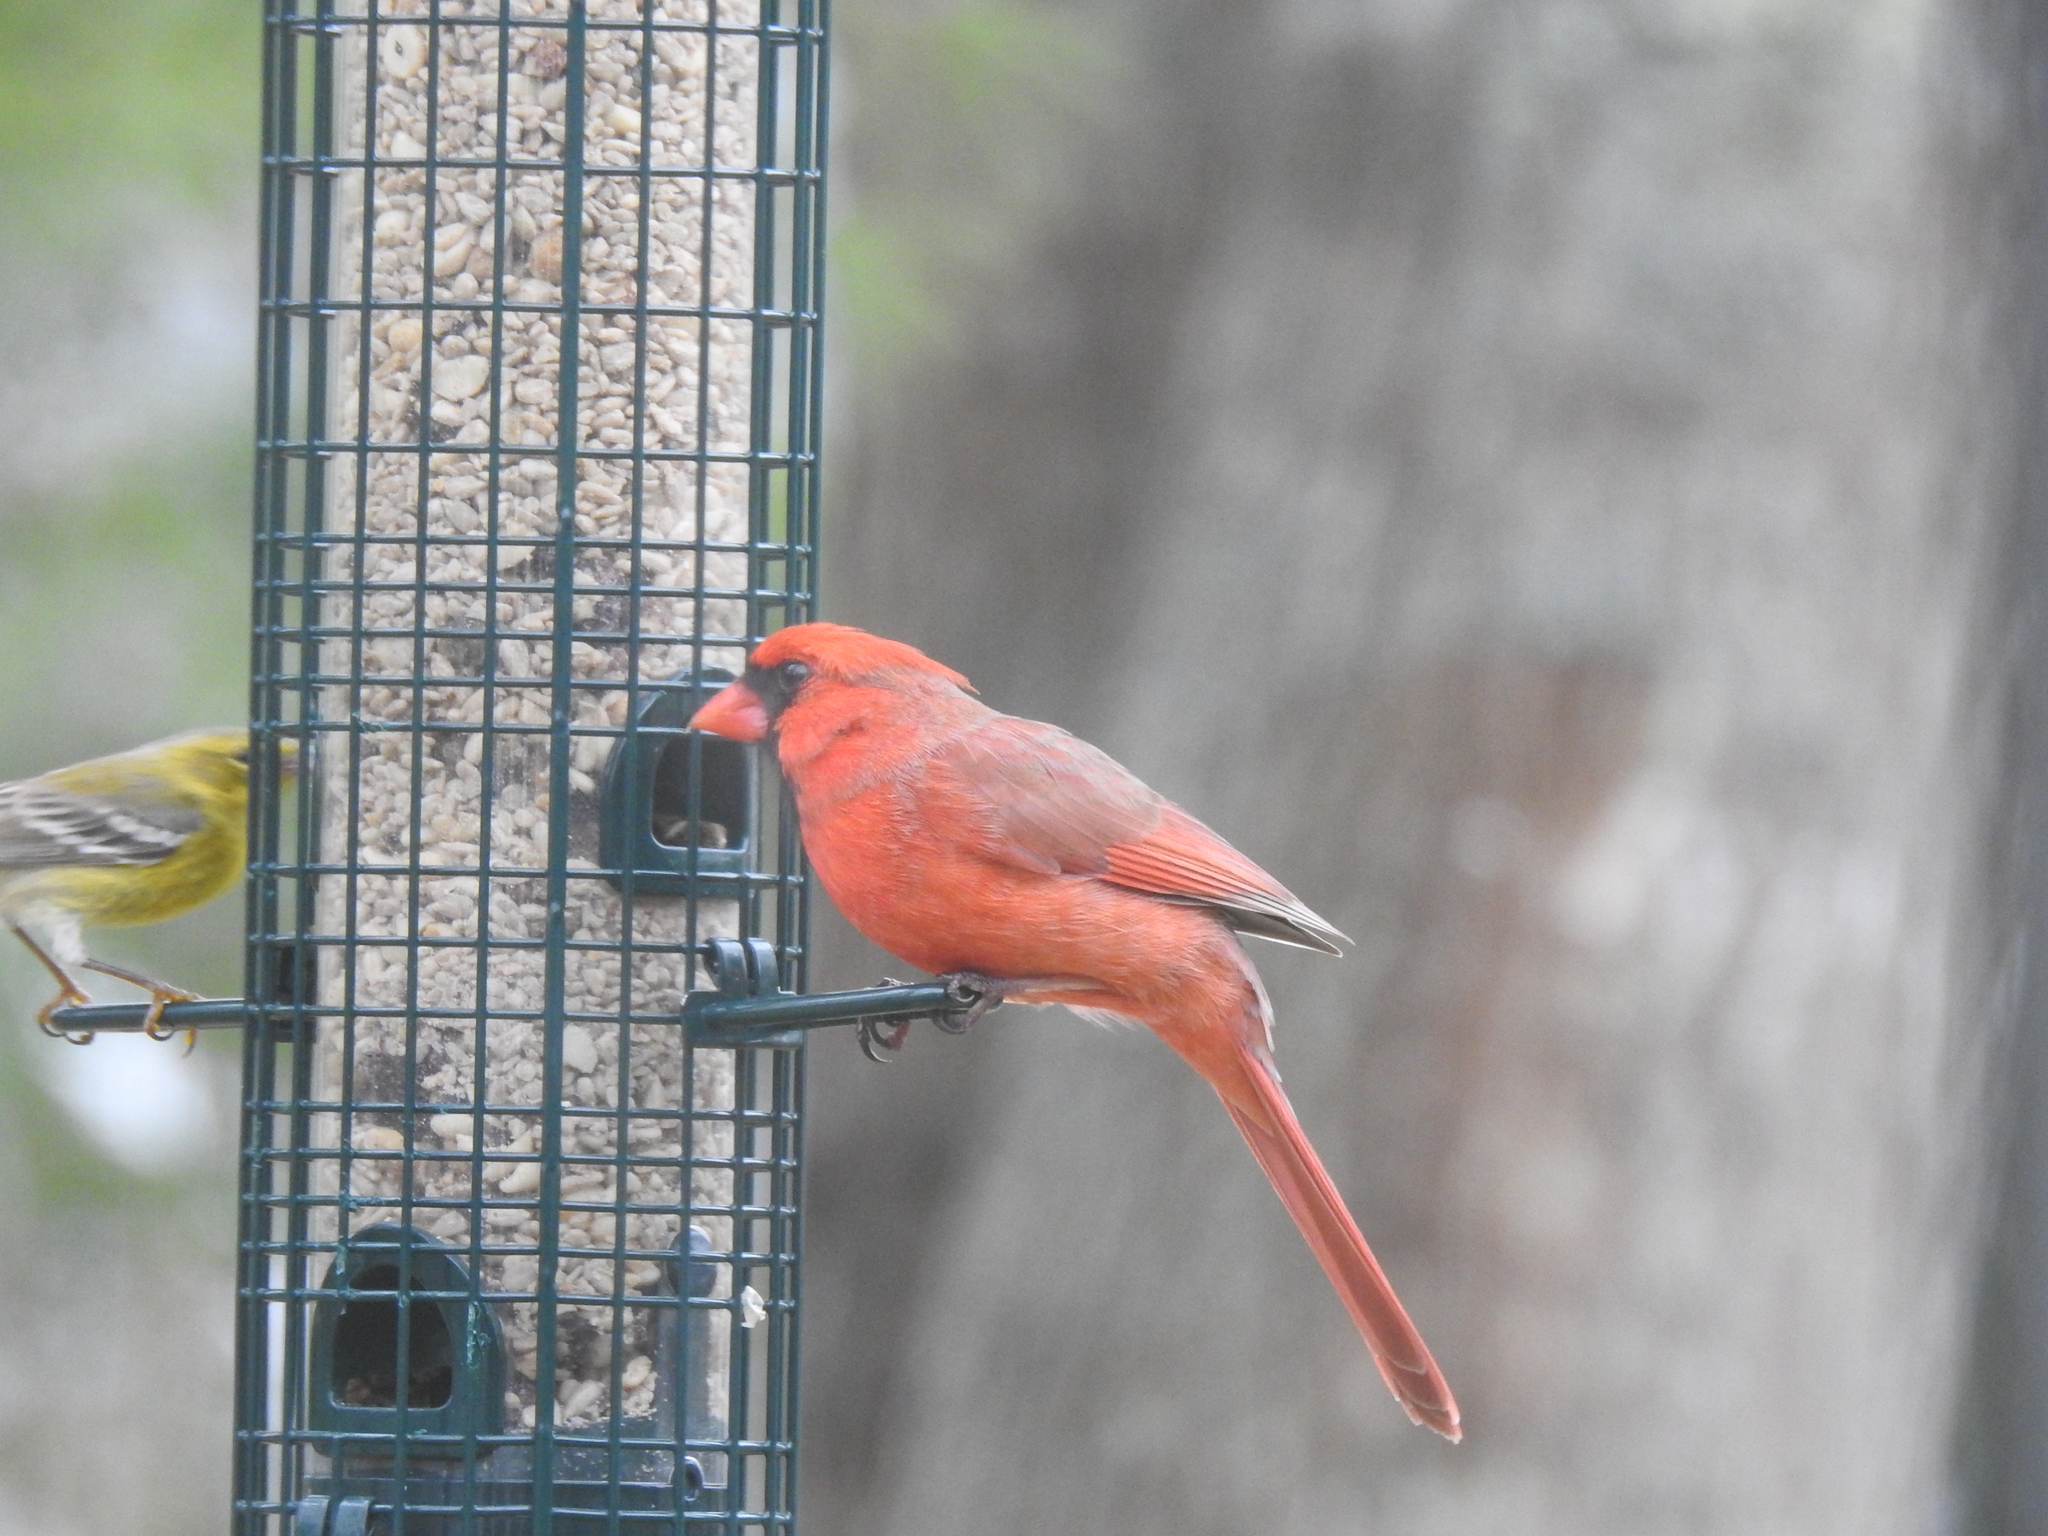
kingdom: Animalia
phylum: Chordata
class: Aves
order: Passeriformes
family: Cardinalidae
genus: Cardinalis
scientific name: Cardinalis cardinalis
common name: Northern cardinal
